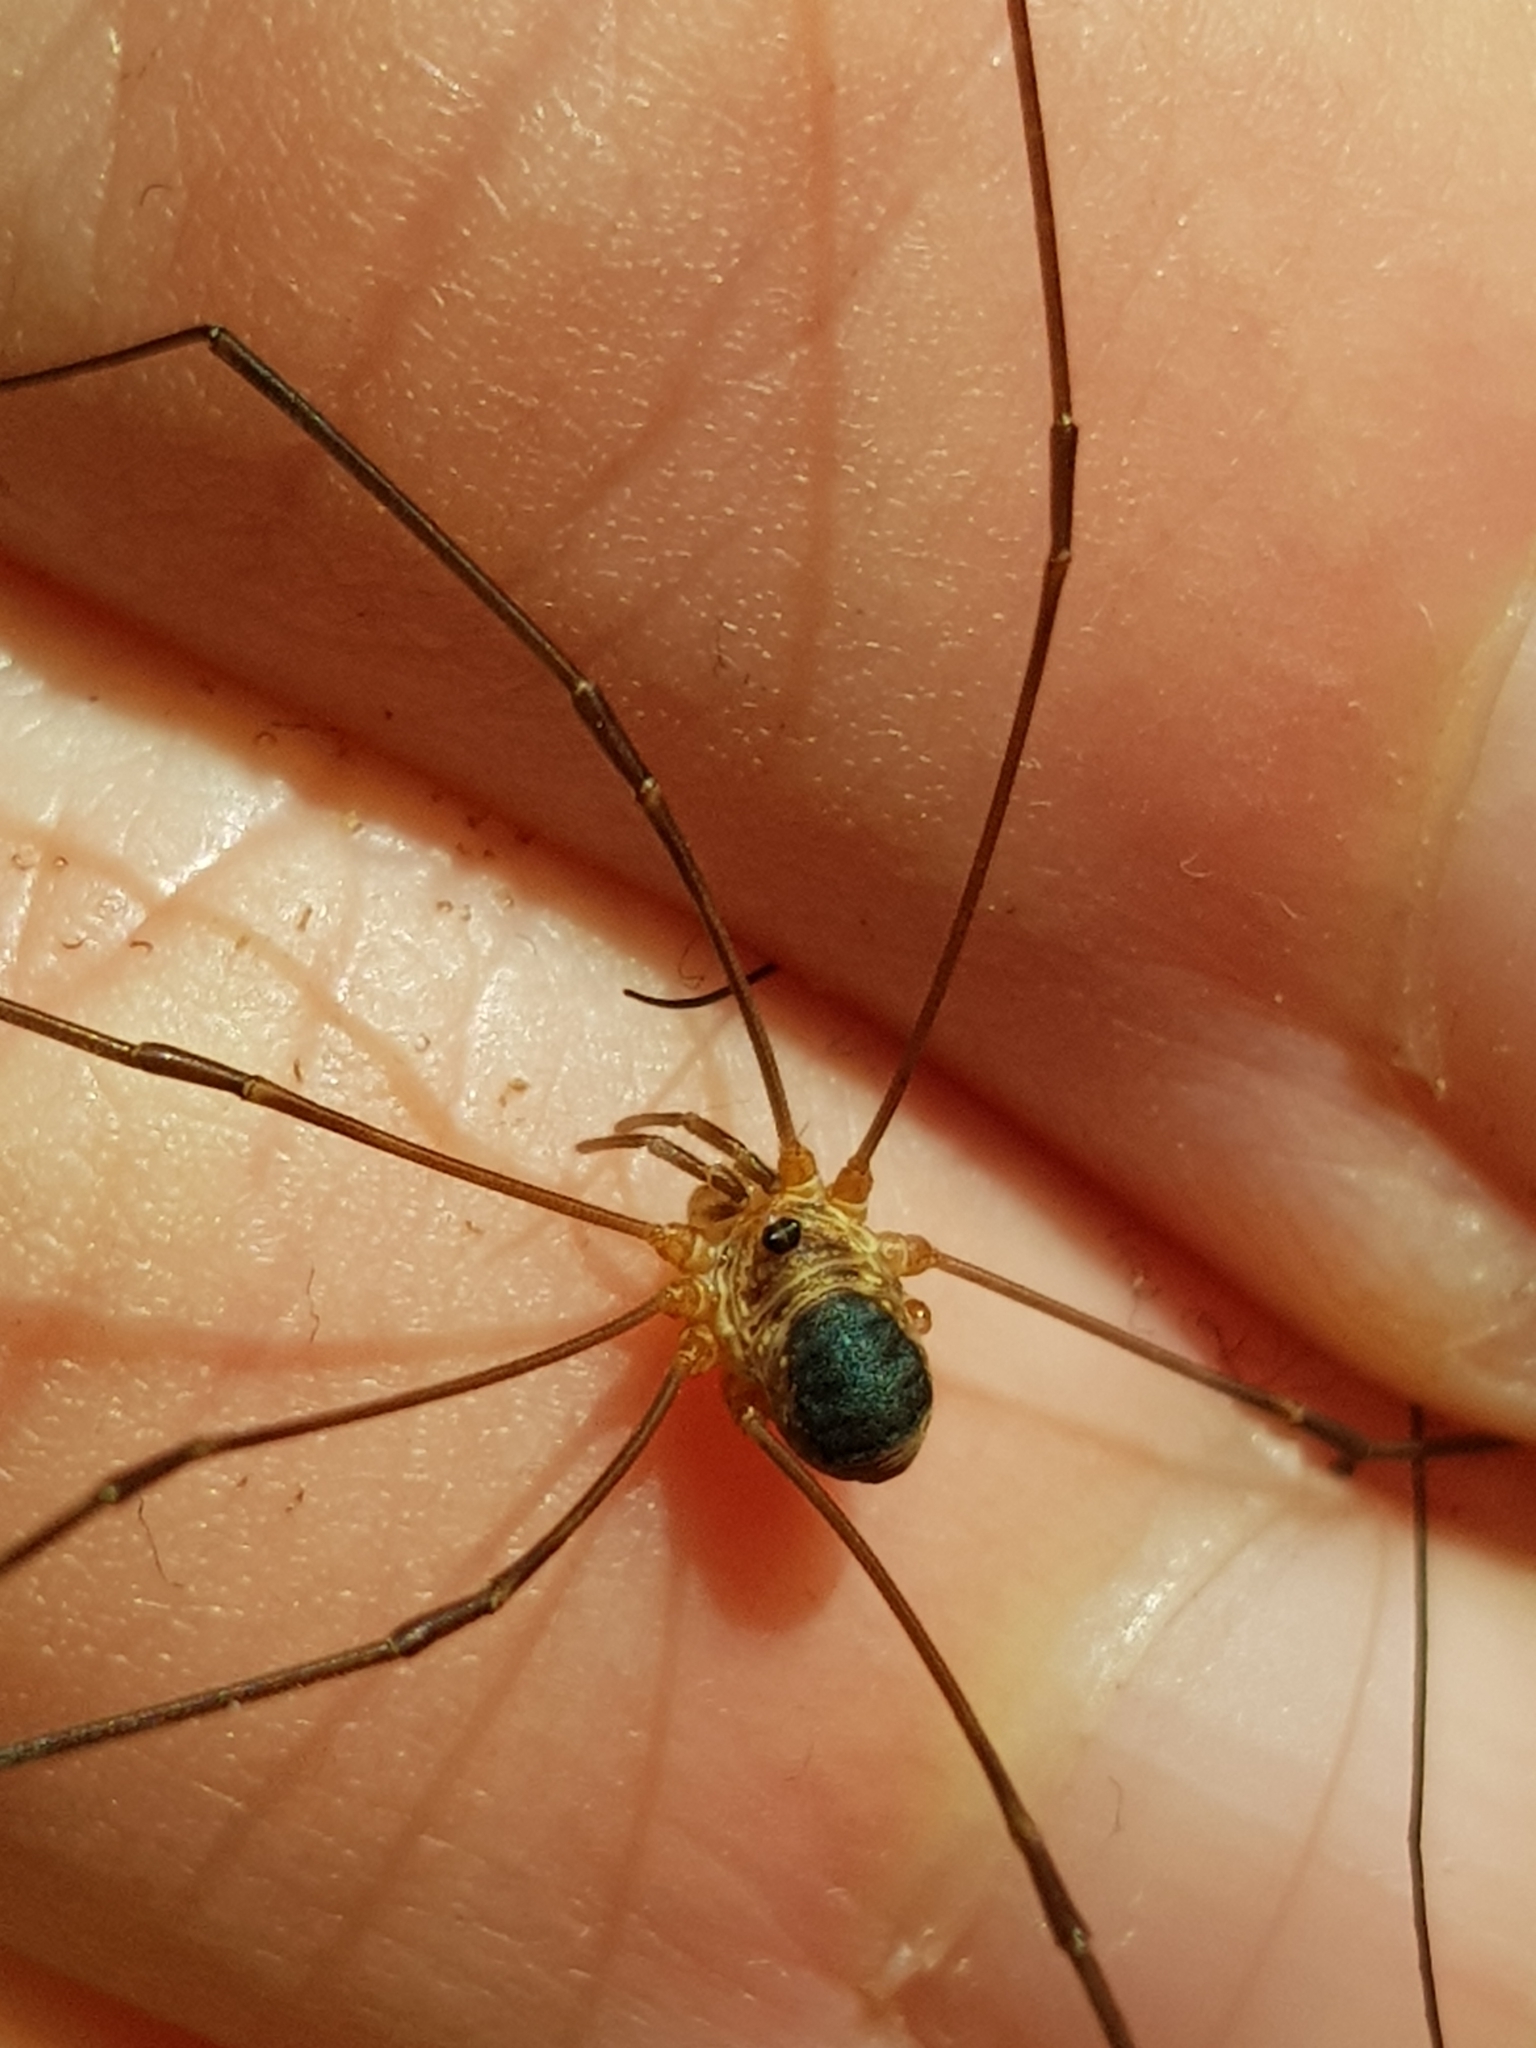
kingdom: Animalia
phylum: Arthropoda
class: Arachnida
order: Opiliones
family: Phalangiidae
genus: Amilenus
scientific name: Amilenus aurantiacus
